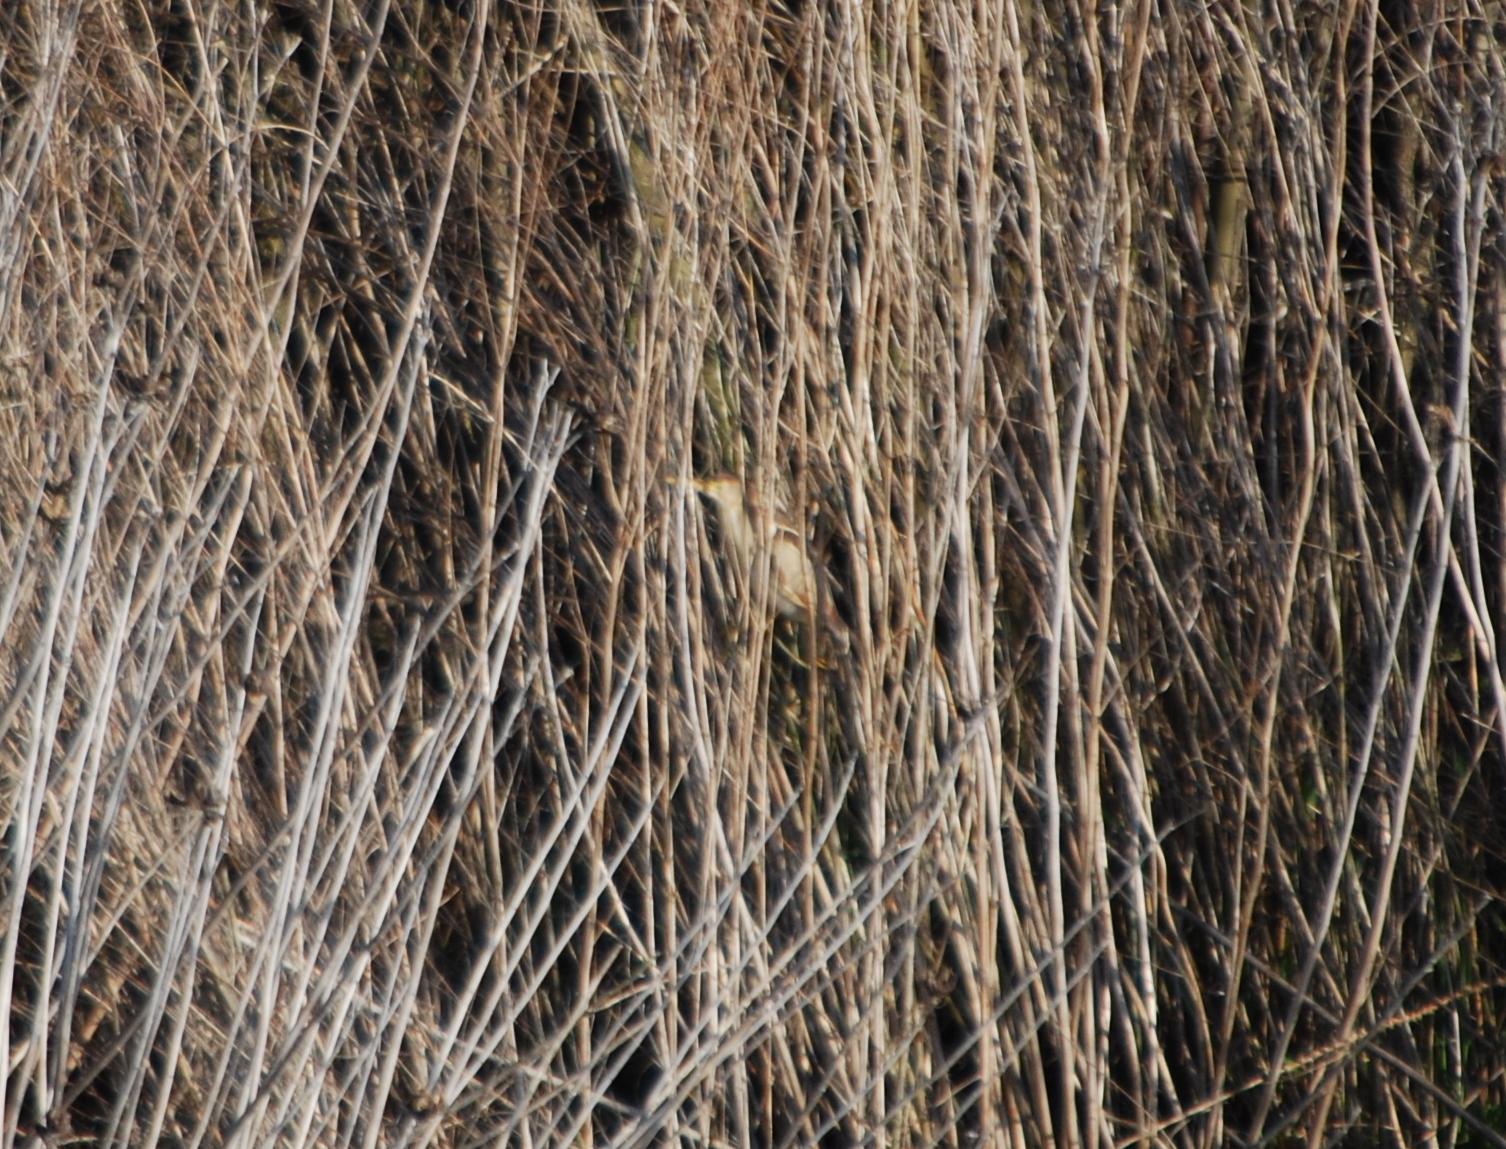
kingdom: Animalia
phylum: Chordata
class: Aves
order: Pelecaniformes
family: Ardeidae
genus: Ixobrychus
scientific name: Ixobrychus exilis
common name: Least bittern
